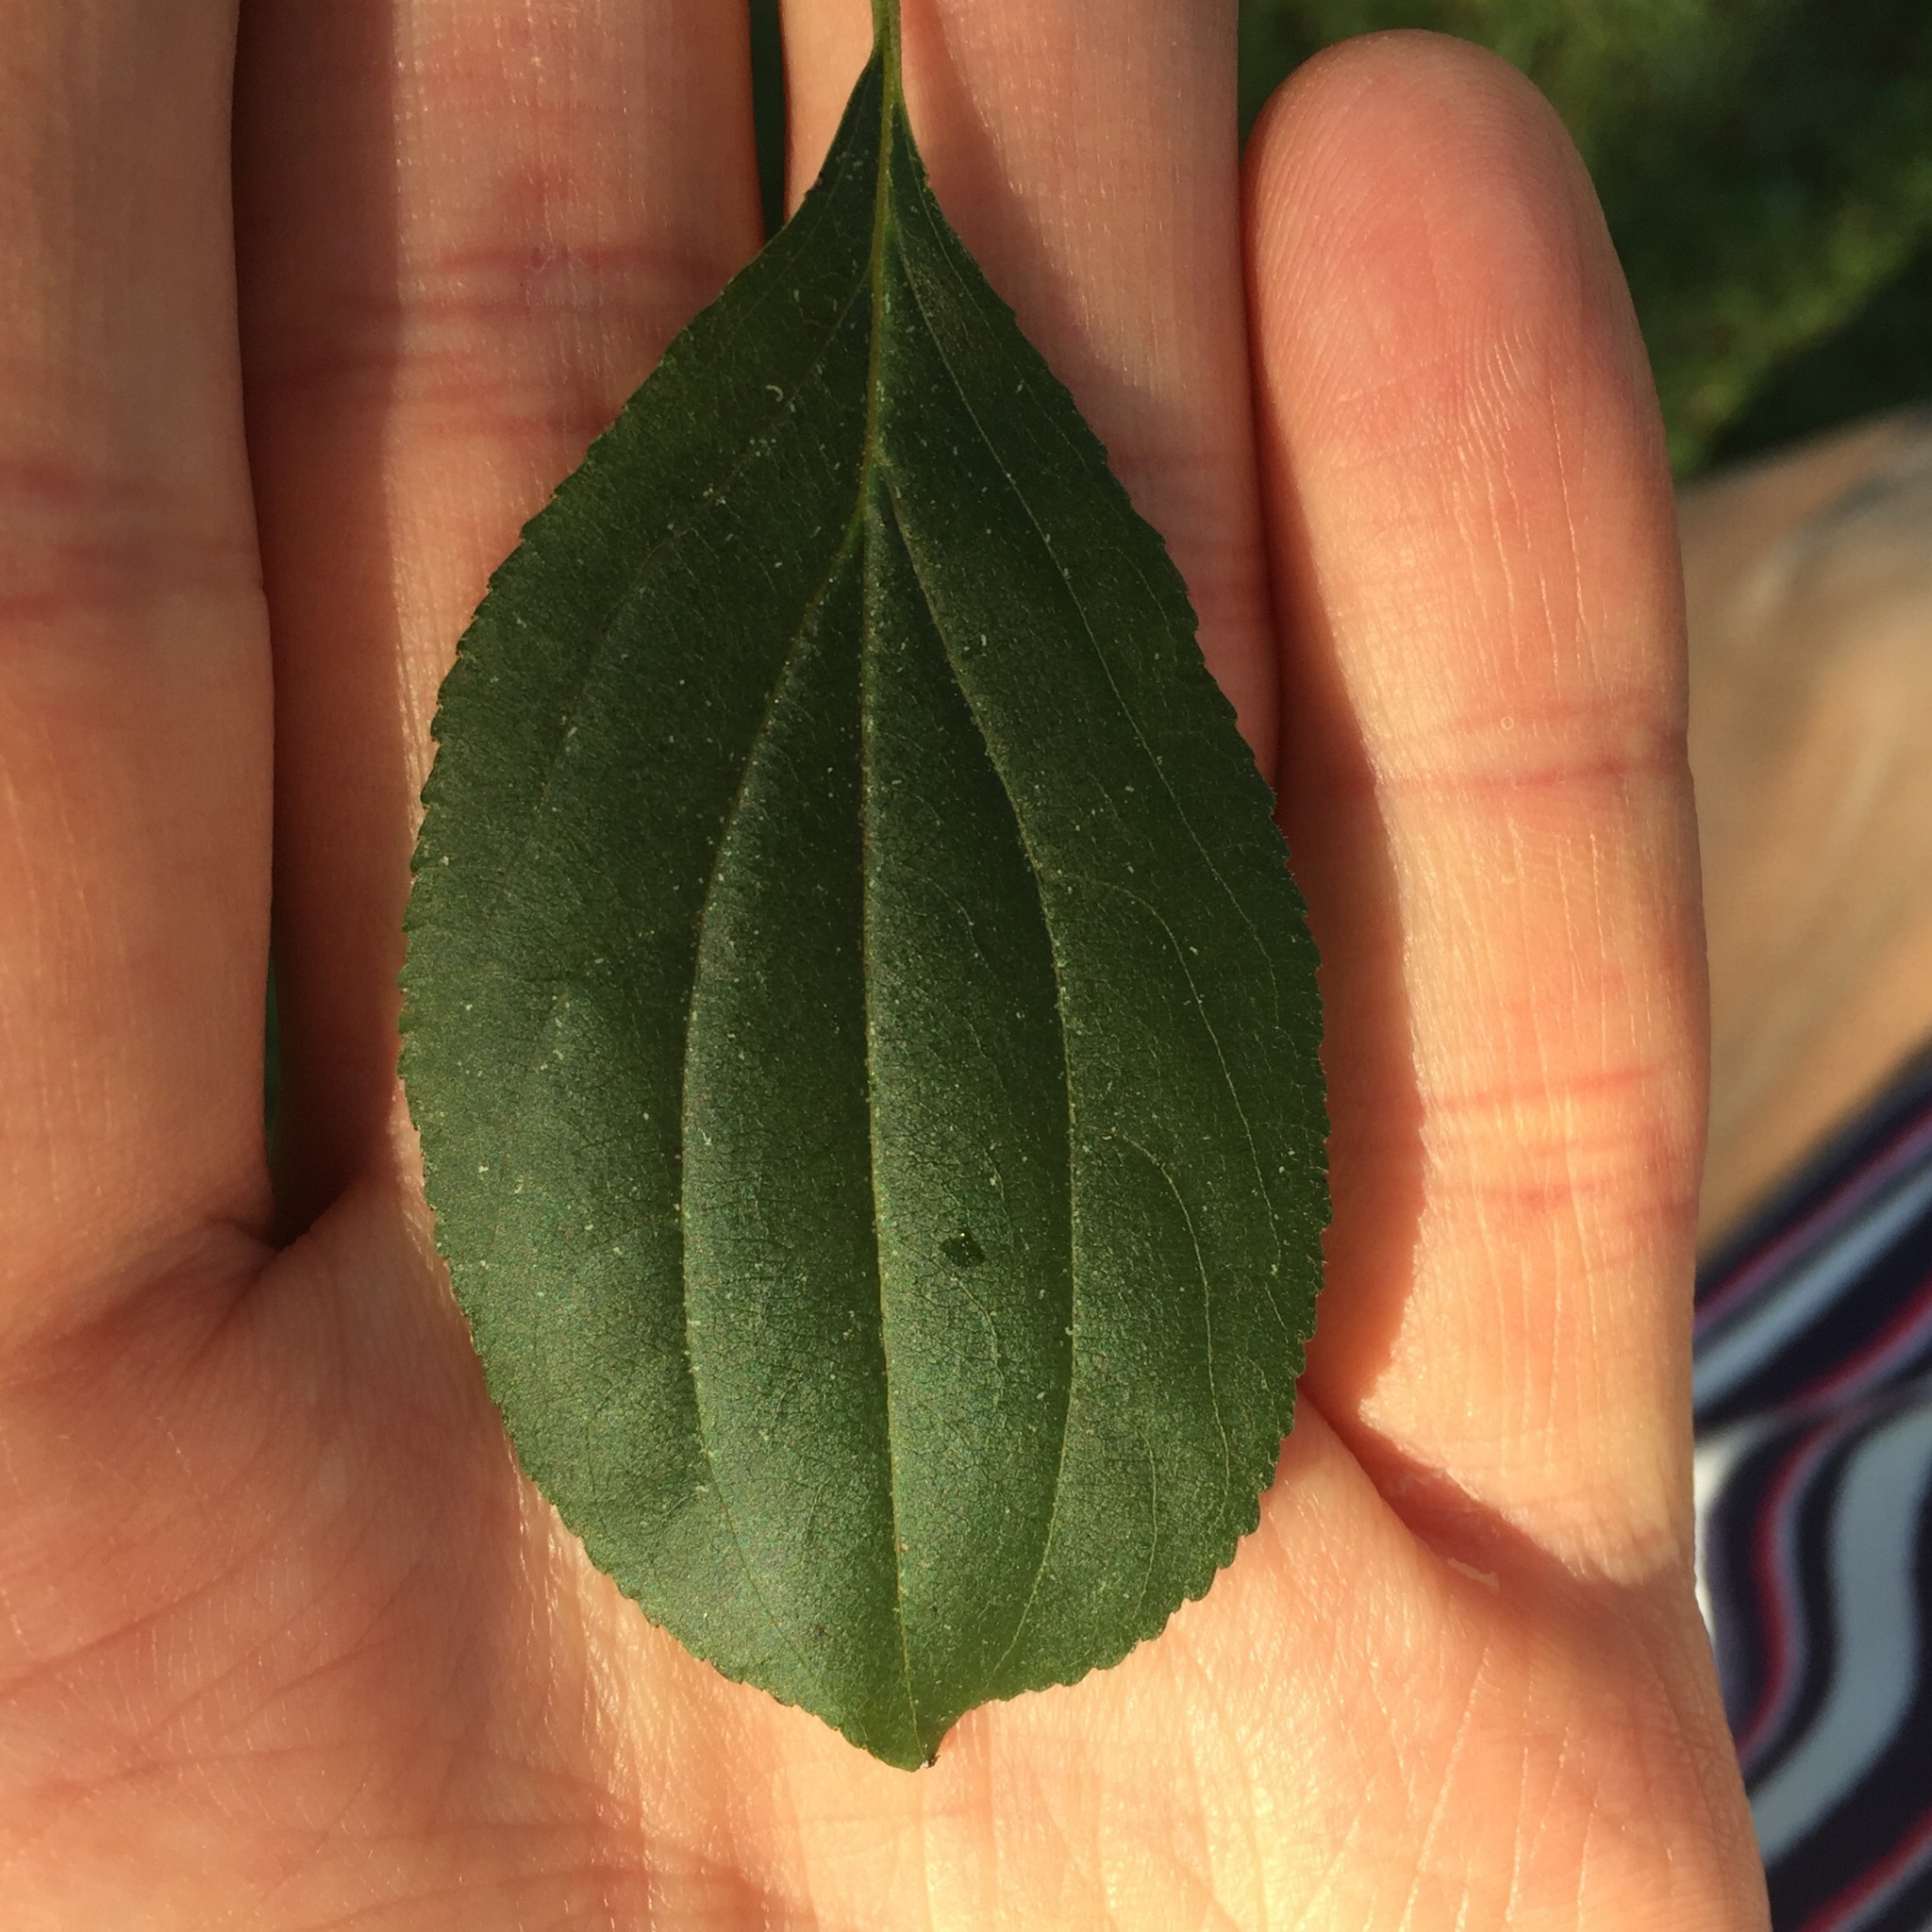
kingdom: Plantae
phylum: Tracheophyta
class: Magnoliopsida
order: Rosales
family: Rhamnaceae
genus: Rhamnus
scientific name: Rhamnus cathartica
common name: Common buckthorn
